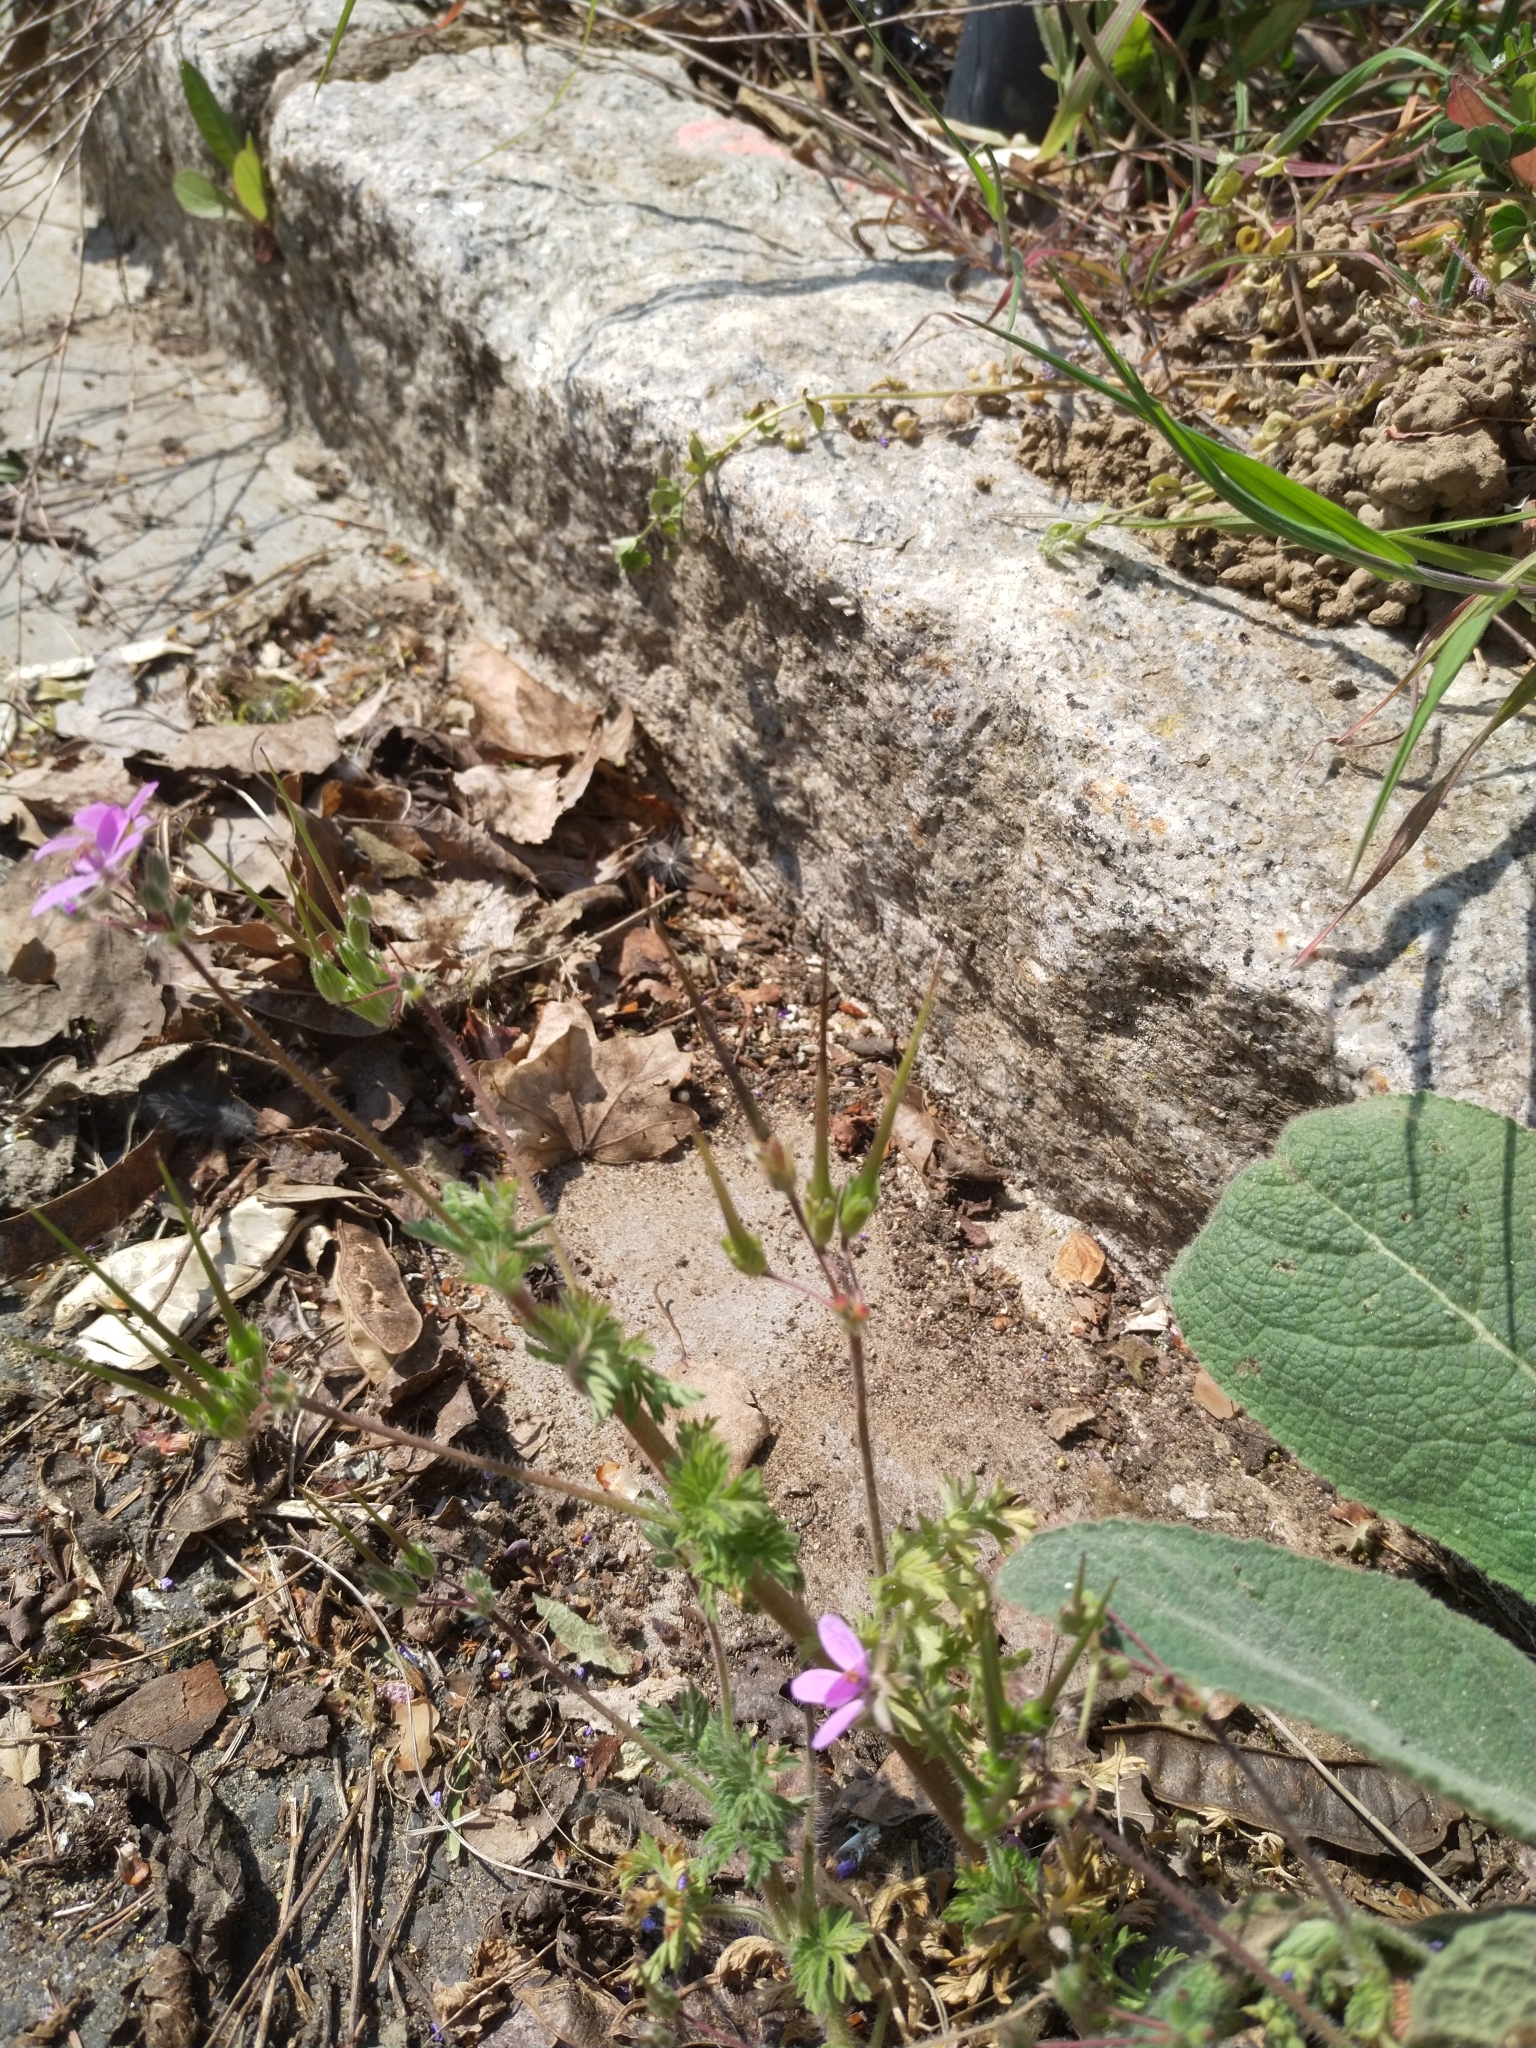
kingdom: Plantae
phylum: Tracheophyta
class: Magnoliopsida
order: Geraniales
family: Geraniaceae
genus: Erodium
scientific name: Erodium cicutarium
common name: Common stork's-bill
